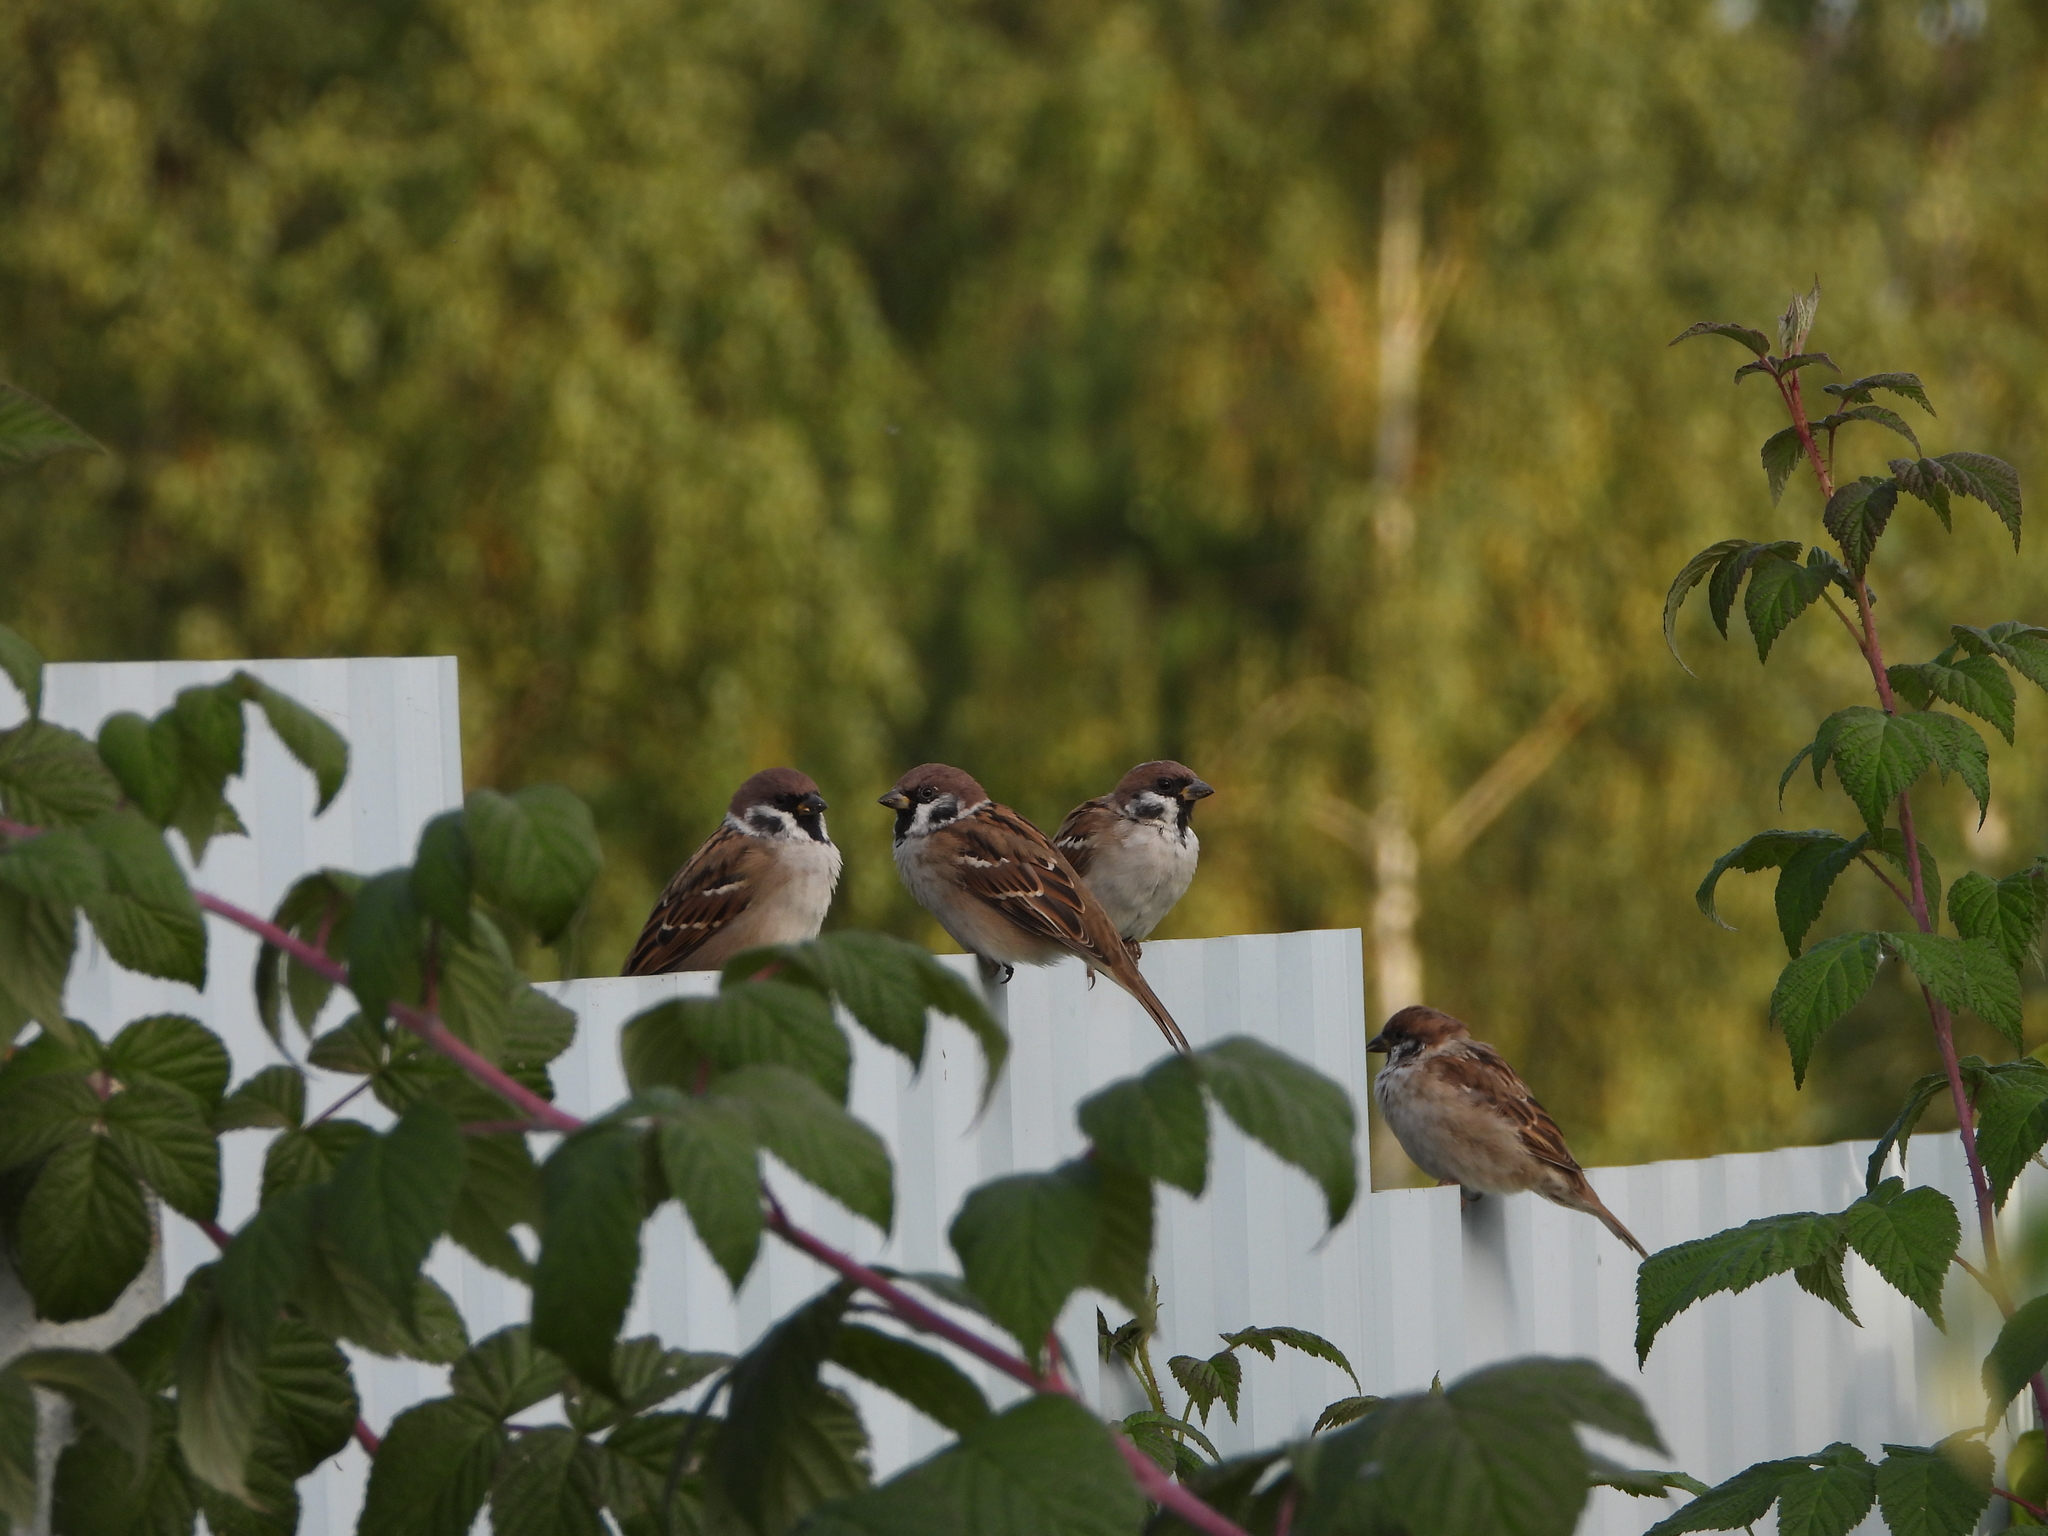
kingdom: Animalia
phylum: Chordata
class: Aves
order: Passeriformes
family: Passeridae
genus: Passer
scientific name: Passer montanus
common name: Eurasian tree sparrow
